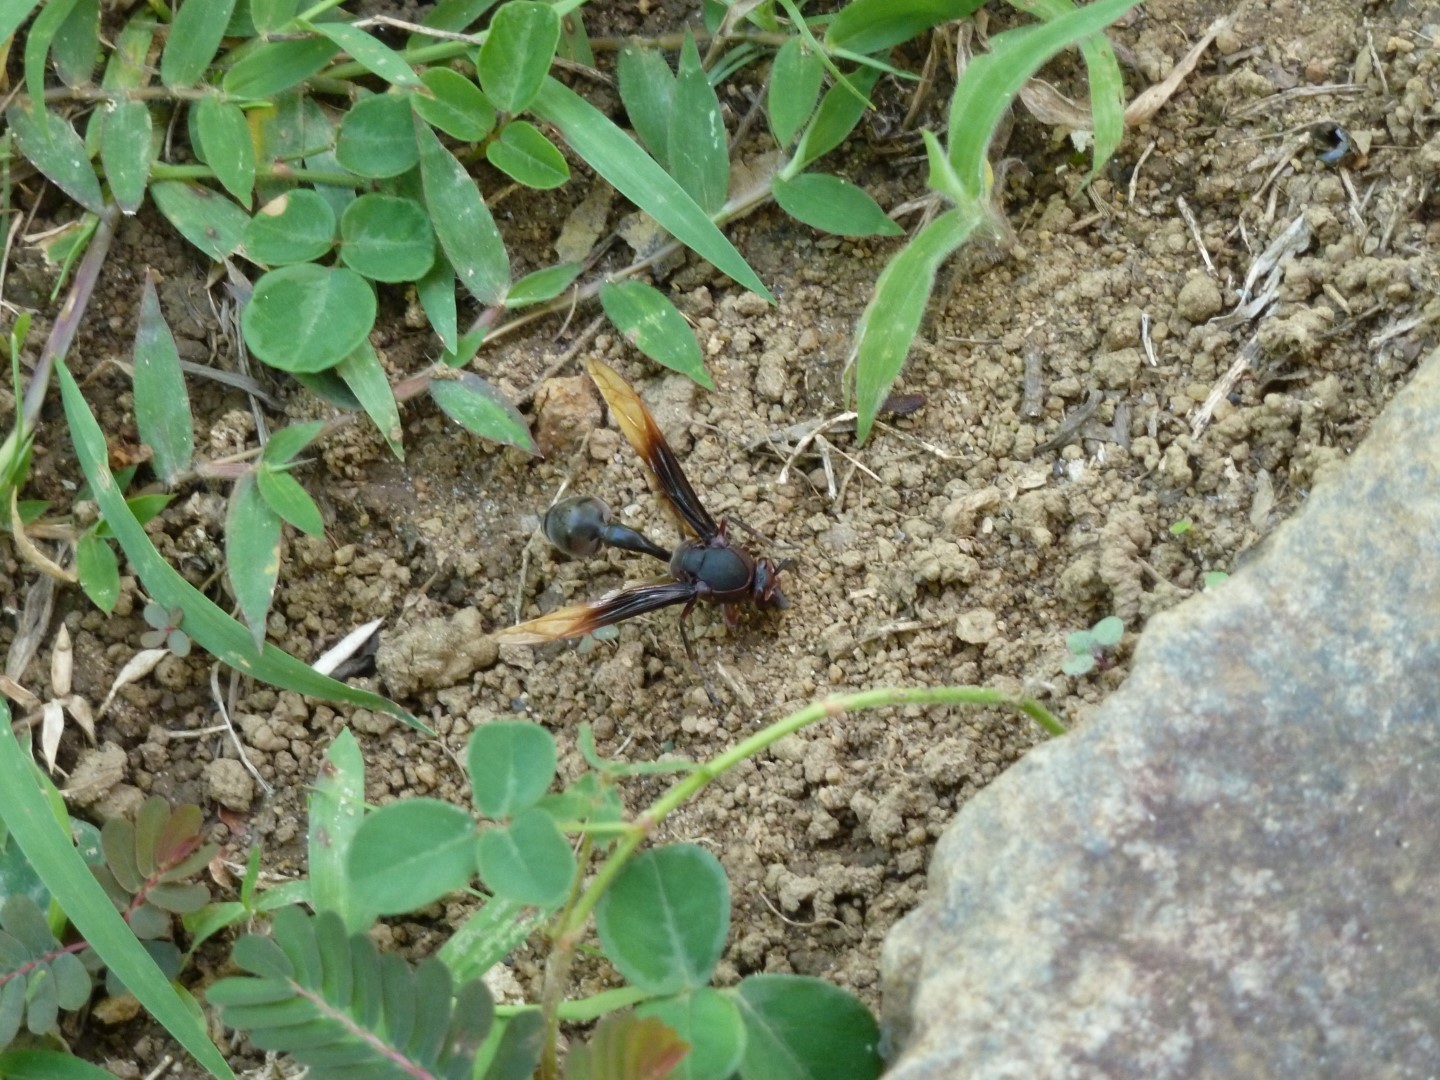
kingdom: Animalia
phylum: Arthropoda
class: Insecta
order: Hymenoptera
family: Eumenidae
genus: Delta
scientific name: Delta regina
